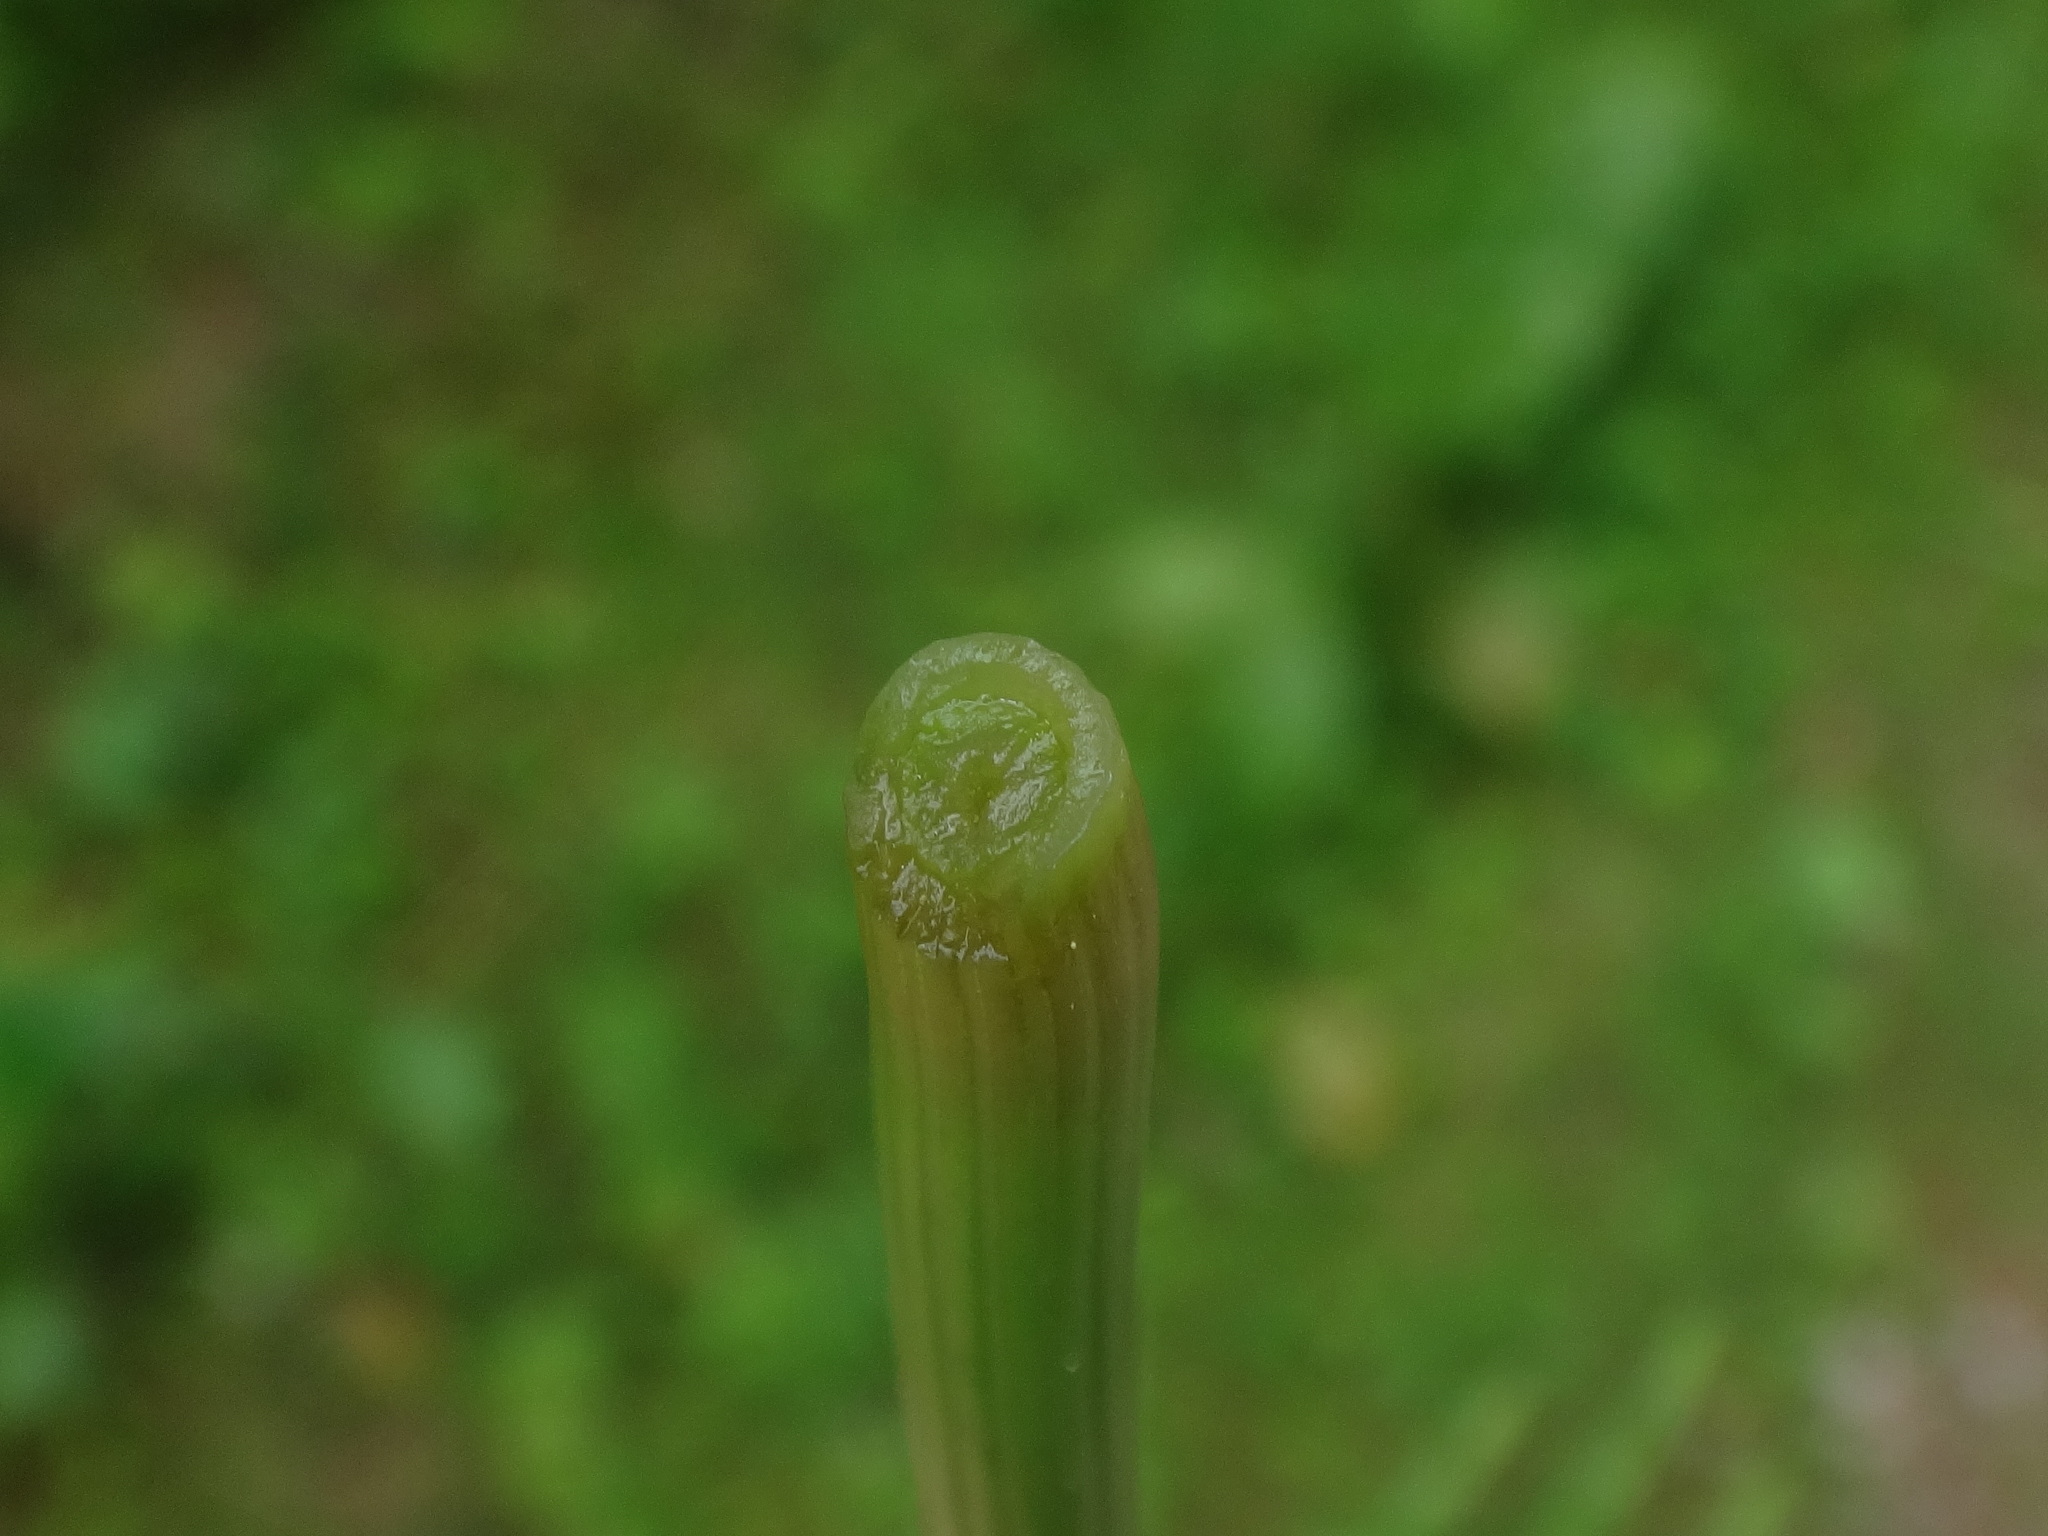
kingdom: Plantae
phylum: Tracheophyta
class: Polypodiopsida
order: Equisetales
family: Equisetaceae
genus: Equisetum
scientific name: Equisetum arvense
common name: Field horsetail
